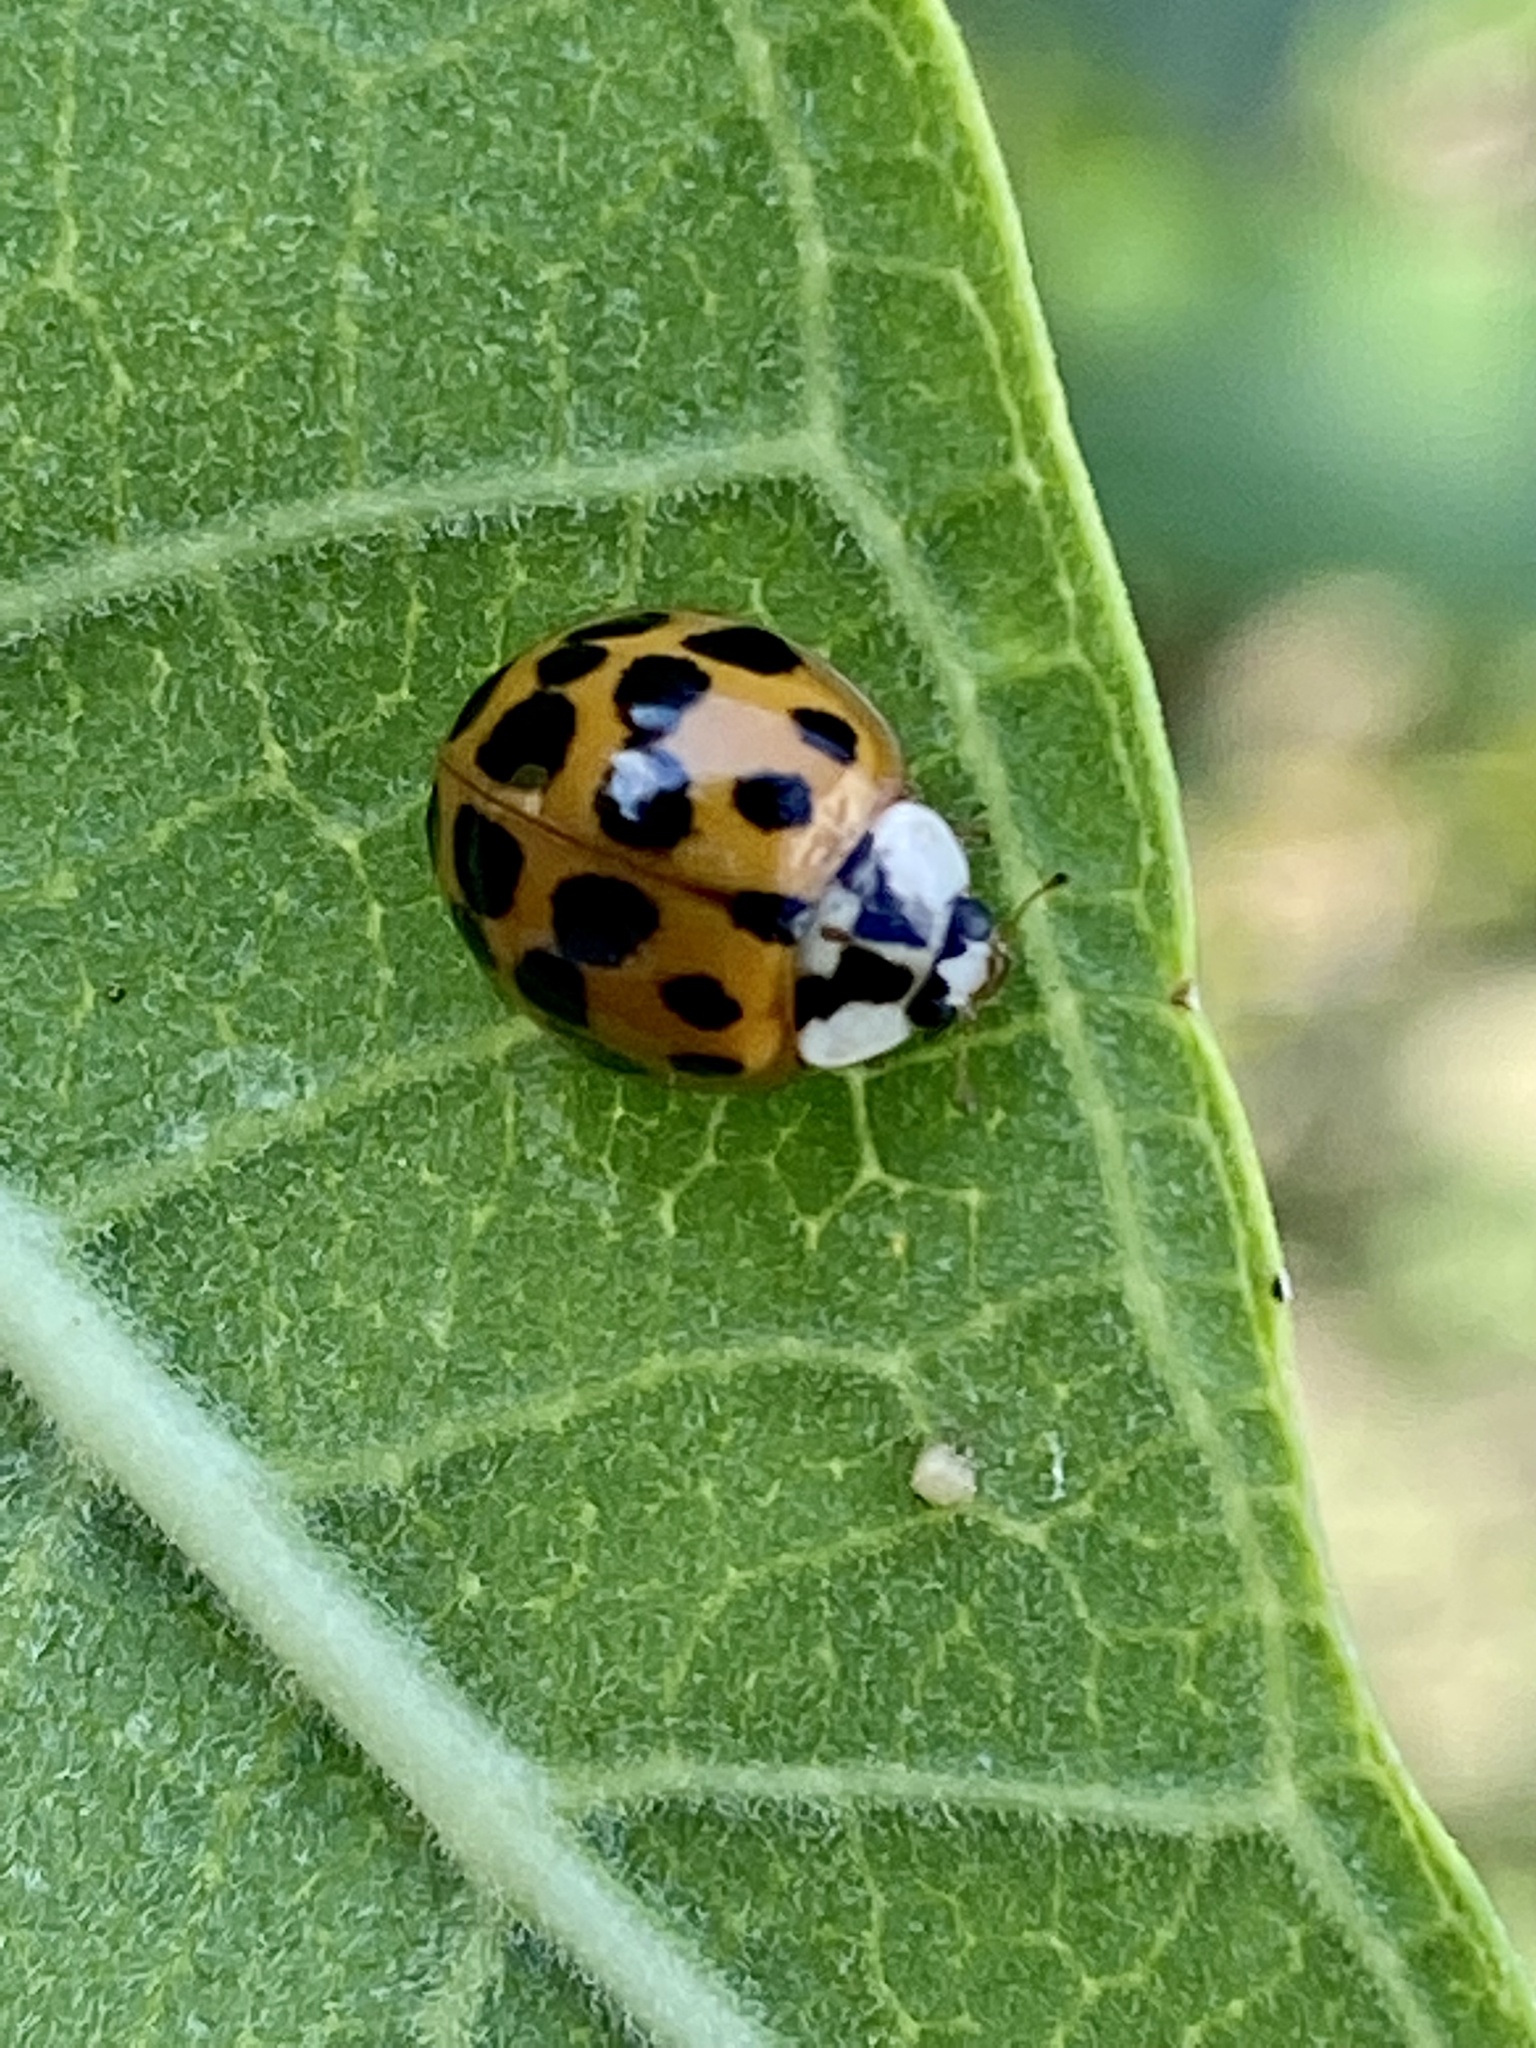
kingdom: Animalia
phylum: Arthropoda
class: Insecta
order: Coleoptera
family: Coccinellidae
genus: Harmonia
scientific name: Harmonia axyridis
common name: Harlequin ladybird
